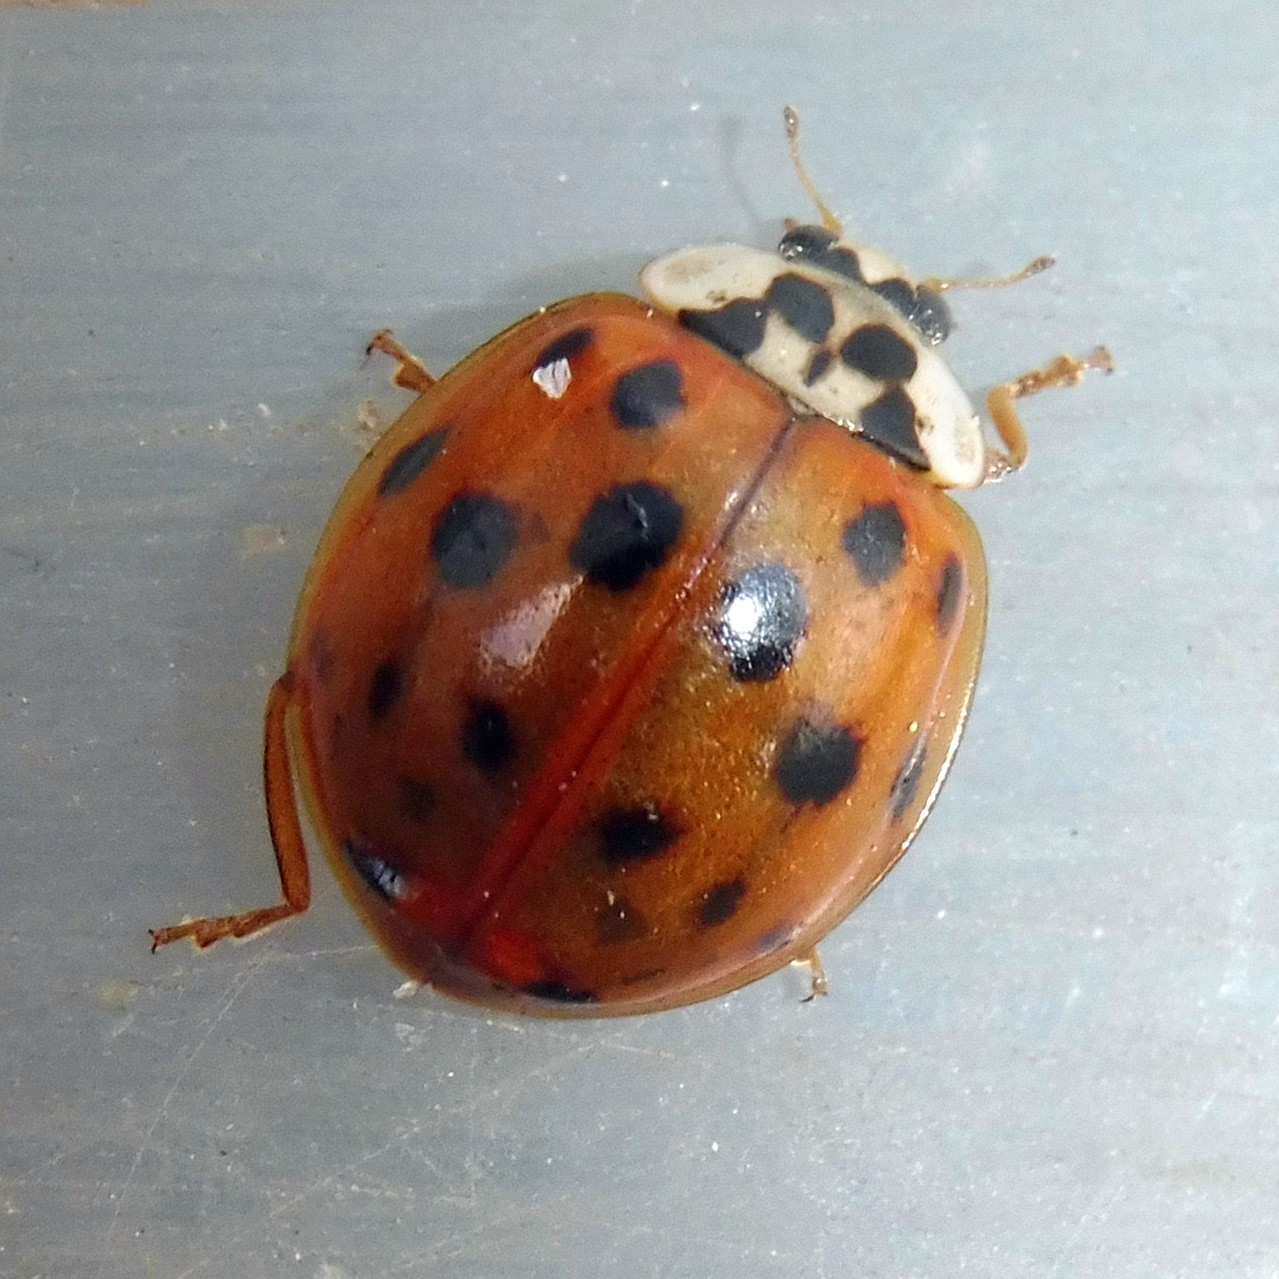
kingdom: Animalia
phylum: Arthropoda
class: Insecta
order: Coleoptera
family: Coccinellidae
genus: Harmonia
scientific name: Harmonia axyridis
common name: Harlequin ladybird
